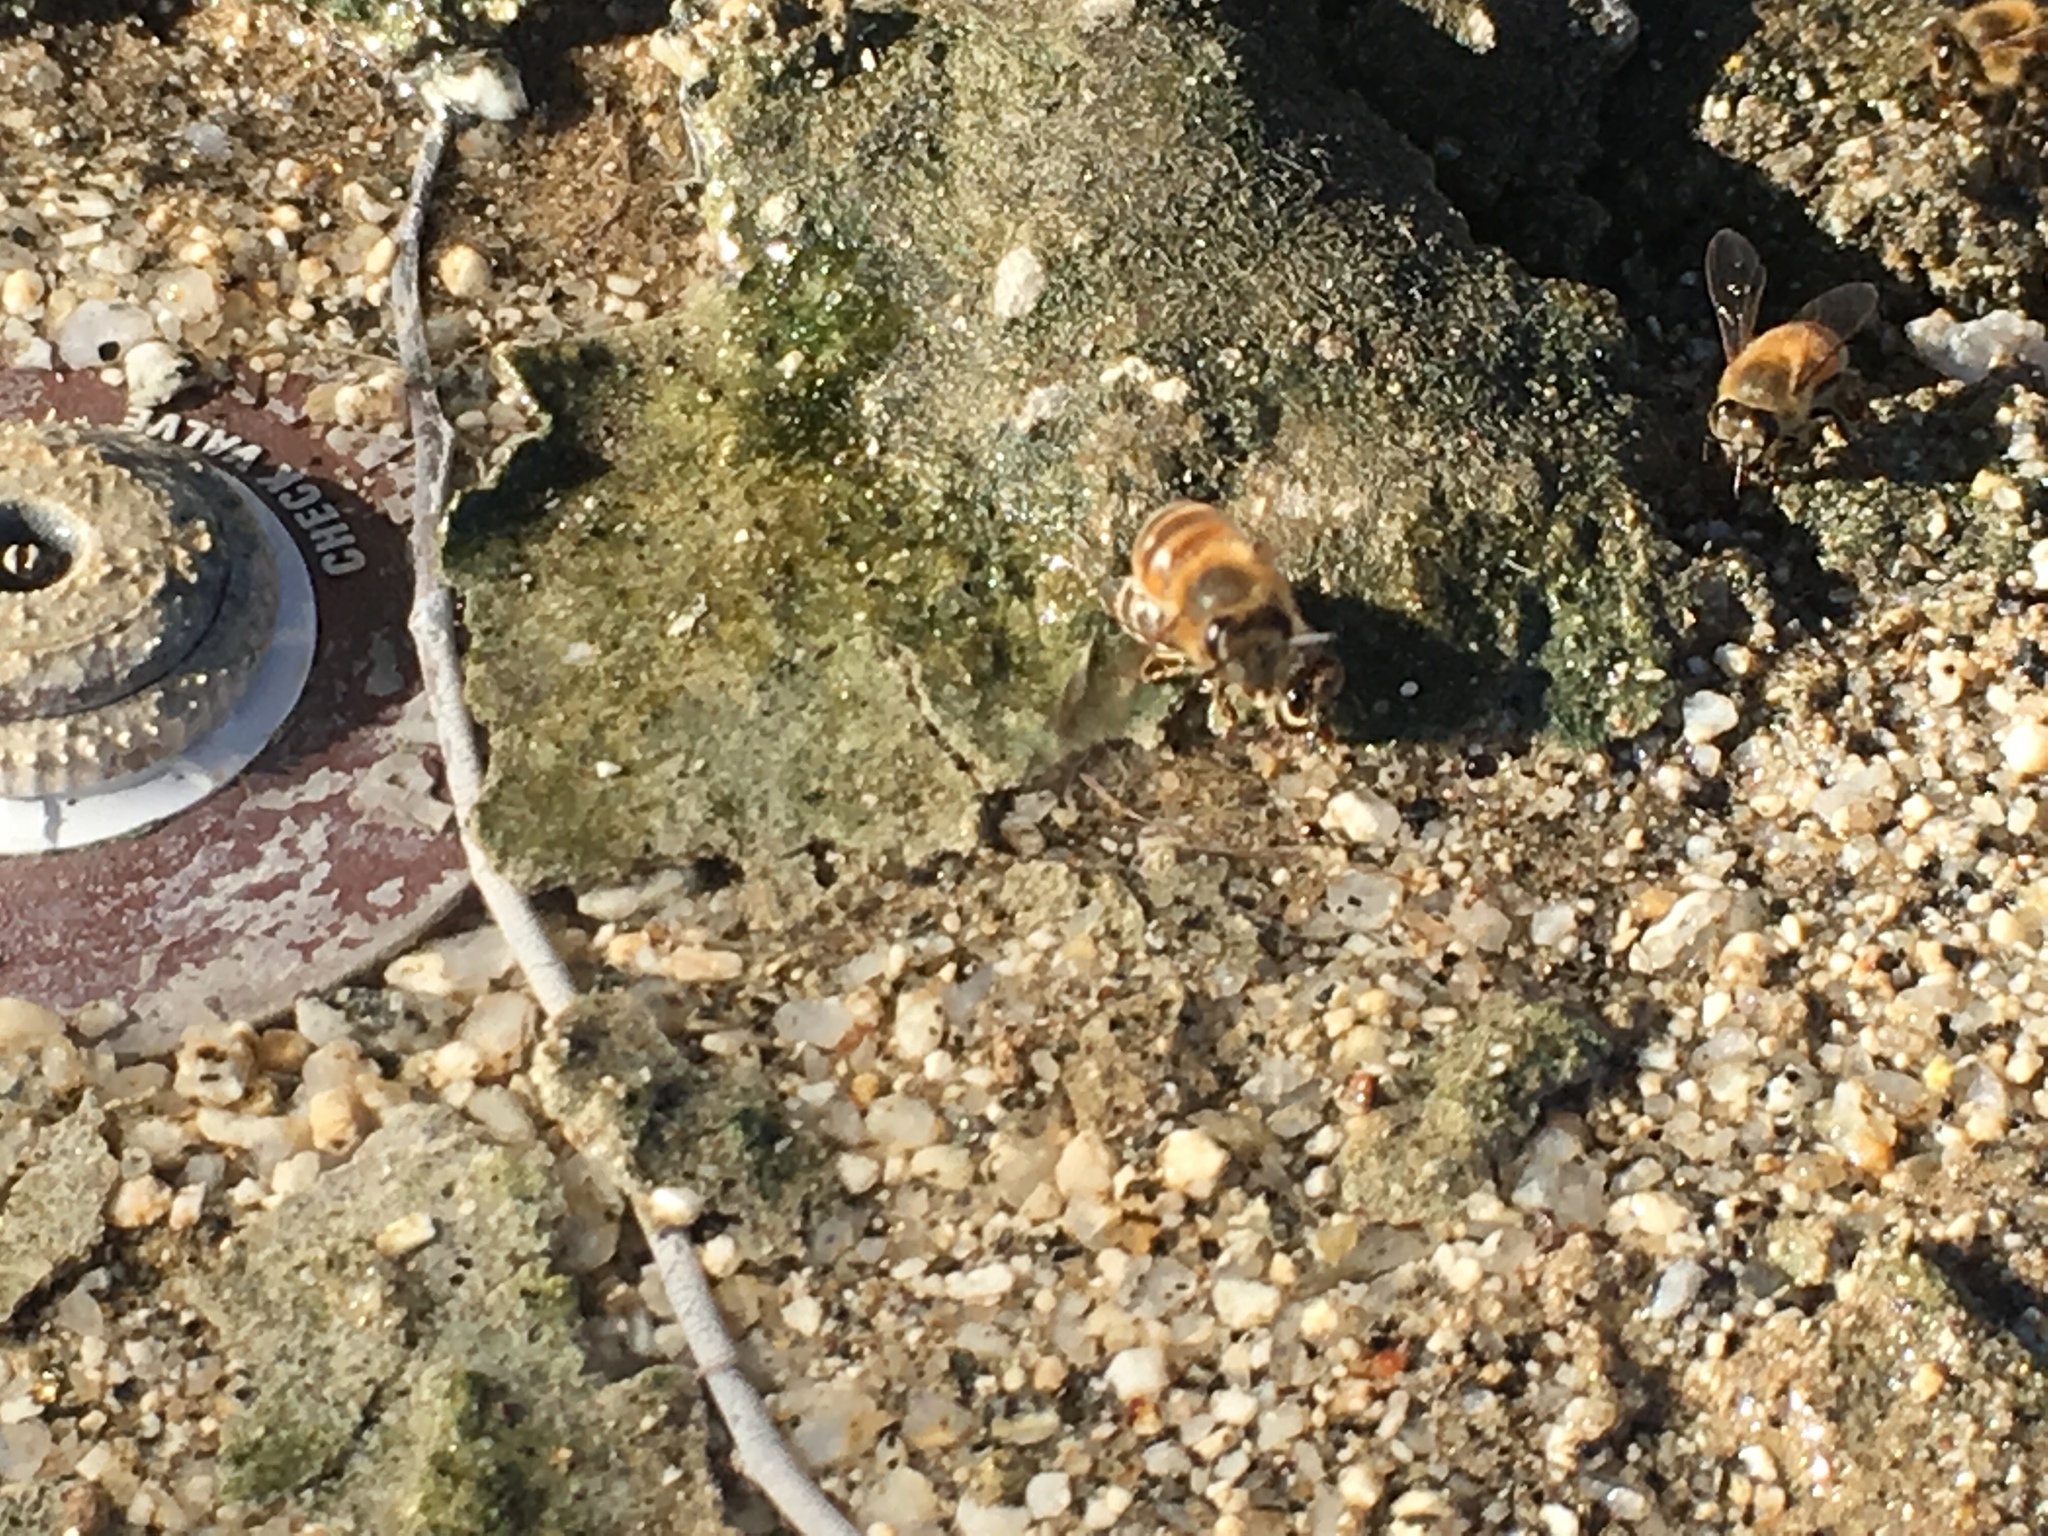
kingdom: Animalia
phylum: Arthropoda
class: Insecta
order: Hymenoptera
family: Apidae
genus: Apis
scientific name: Apis mellifera
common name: Honey bee
